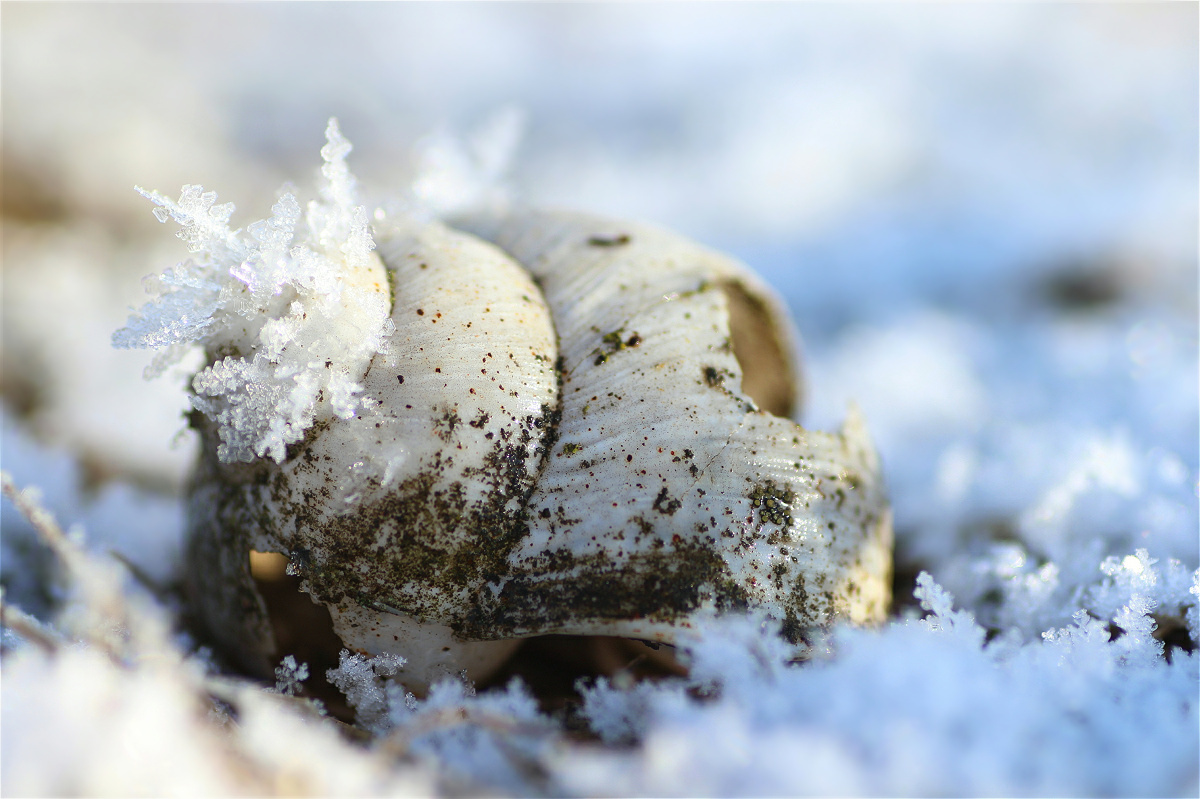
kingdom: Animalia
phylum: Mollusca
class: Gastropoda
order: Stylommatophora
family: Helicidae
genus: Helix
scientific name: Helix pomatia
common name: Roman snail
